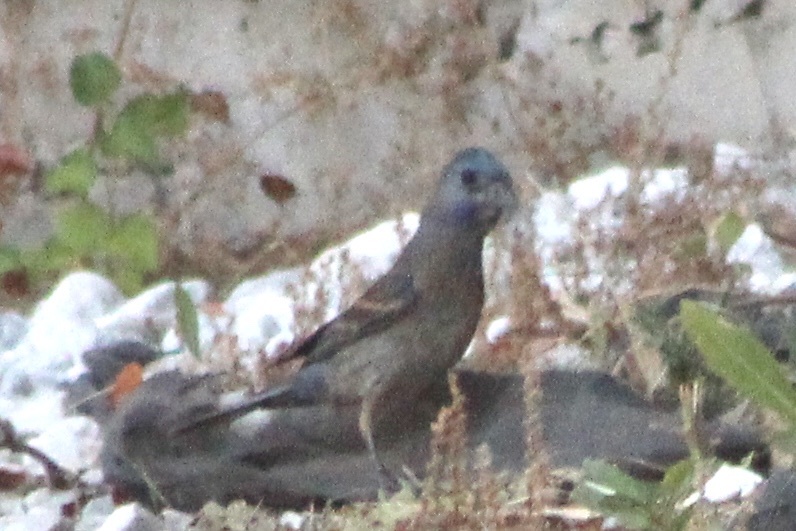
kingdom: Animalia
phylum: Chordata
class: Aves
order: Passeriformes
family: Cardinalidae
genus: Passerina
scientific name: Passerina caerulea
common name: Blue grosbeak
